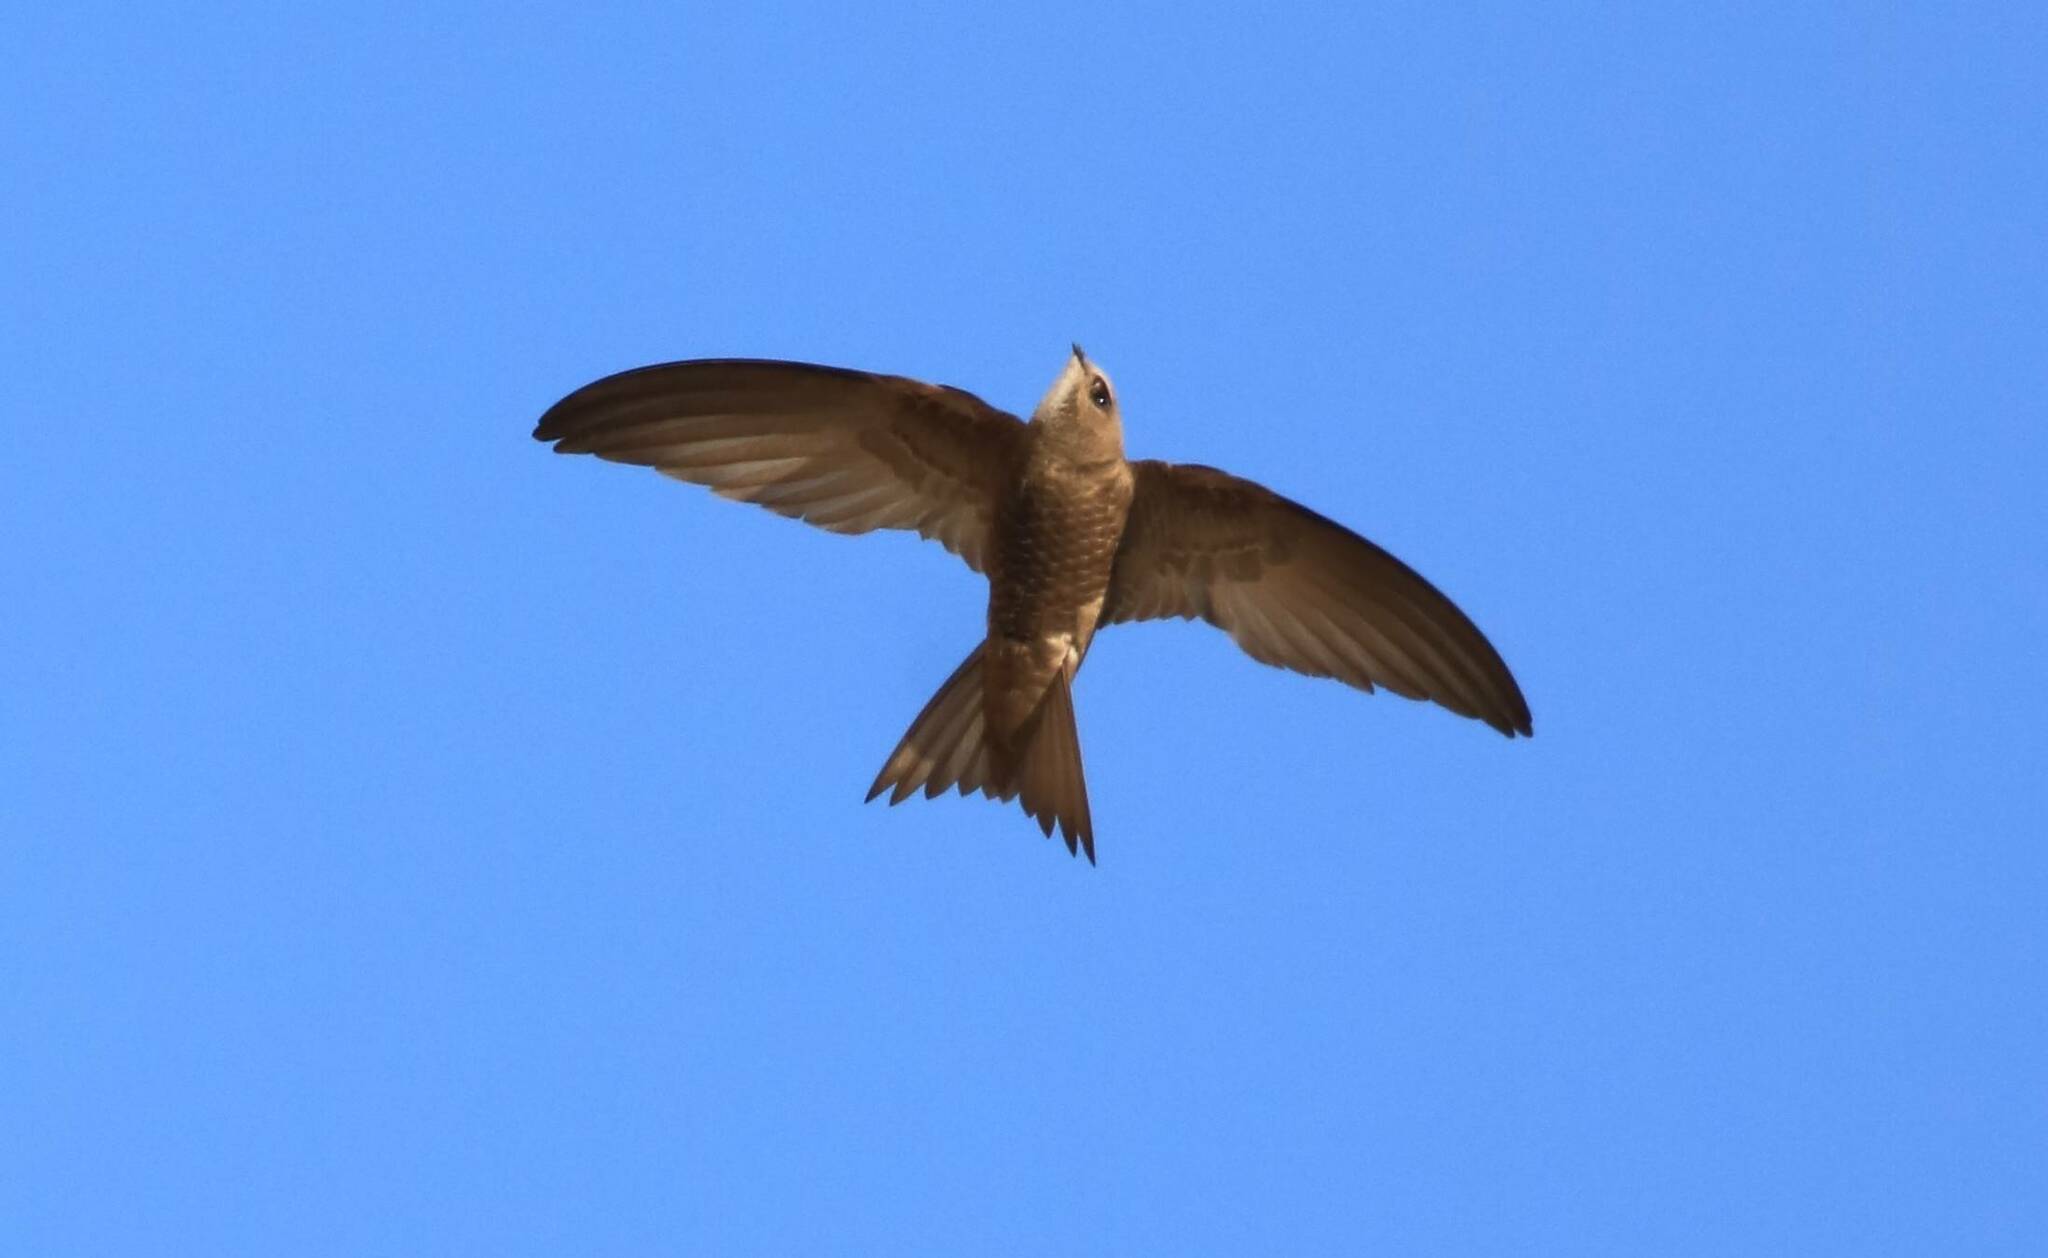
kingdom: Animalia
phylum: Chordata
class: Aves
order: Apodiformes
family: Apodidae
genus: Apus
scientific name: Apus pallidus
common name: Pallid swift
